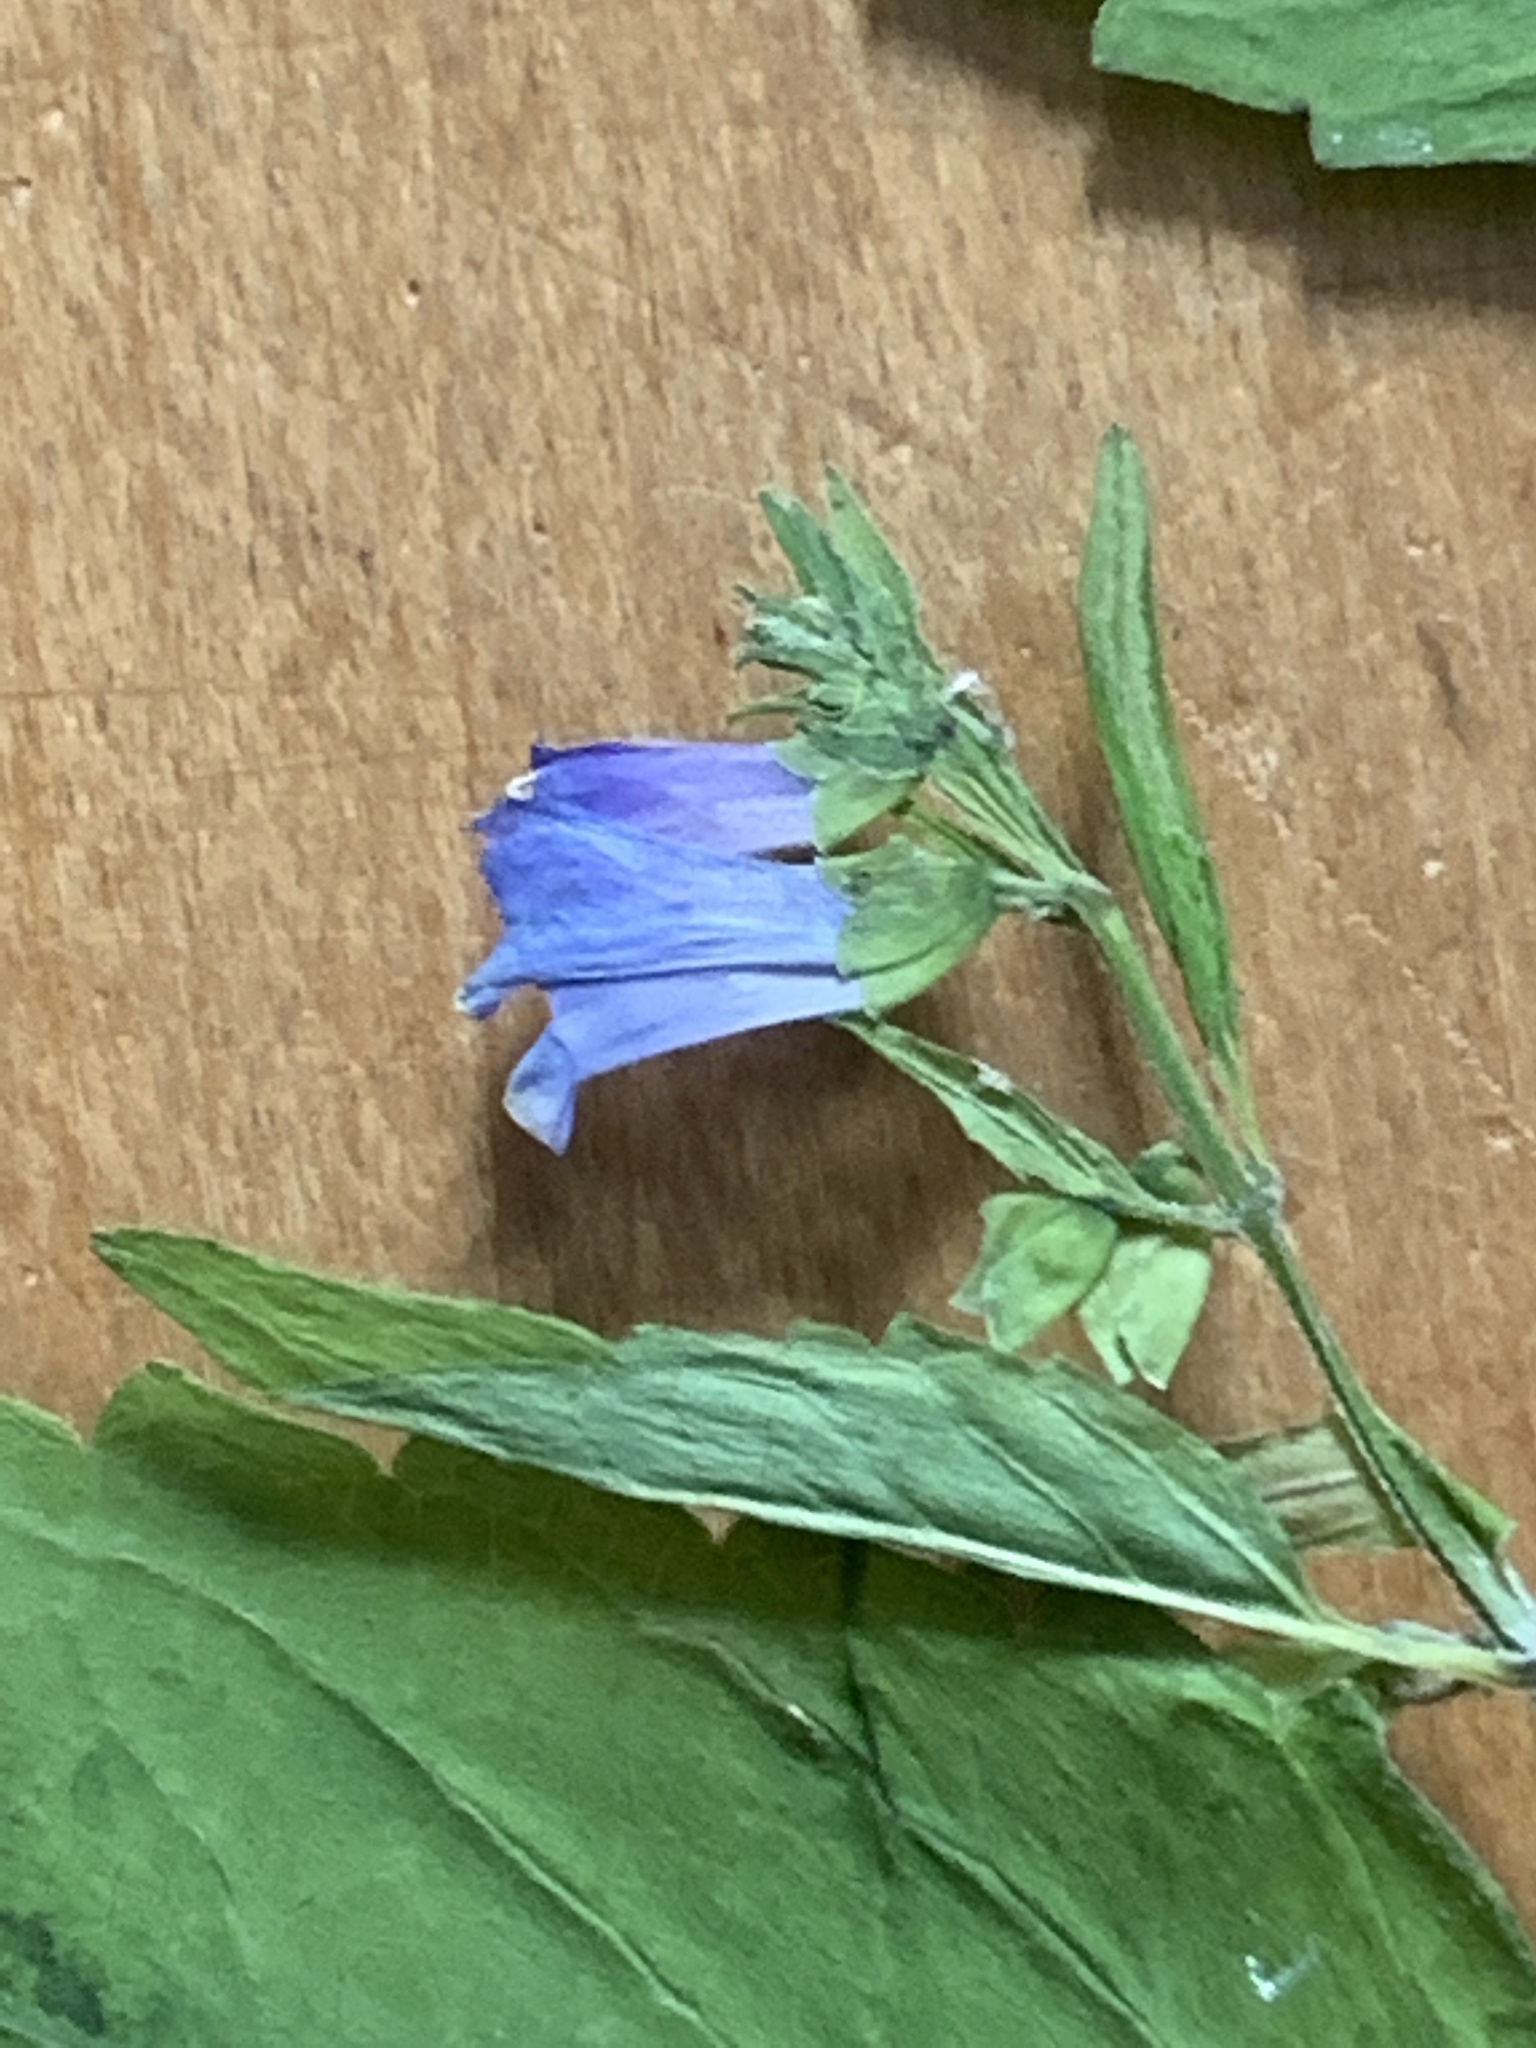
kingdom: Plantae
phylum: Tracheophyta
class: Magnoliopsida
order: Lamiales
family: Lamiaceae
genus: Scutellaria
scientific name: Scutellaria lateriflora
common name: Blue skullcap
